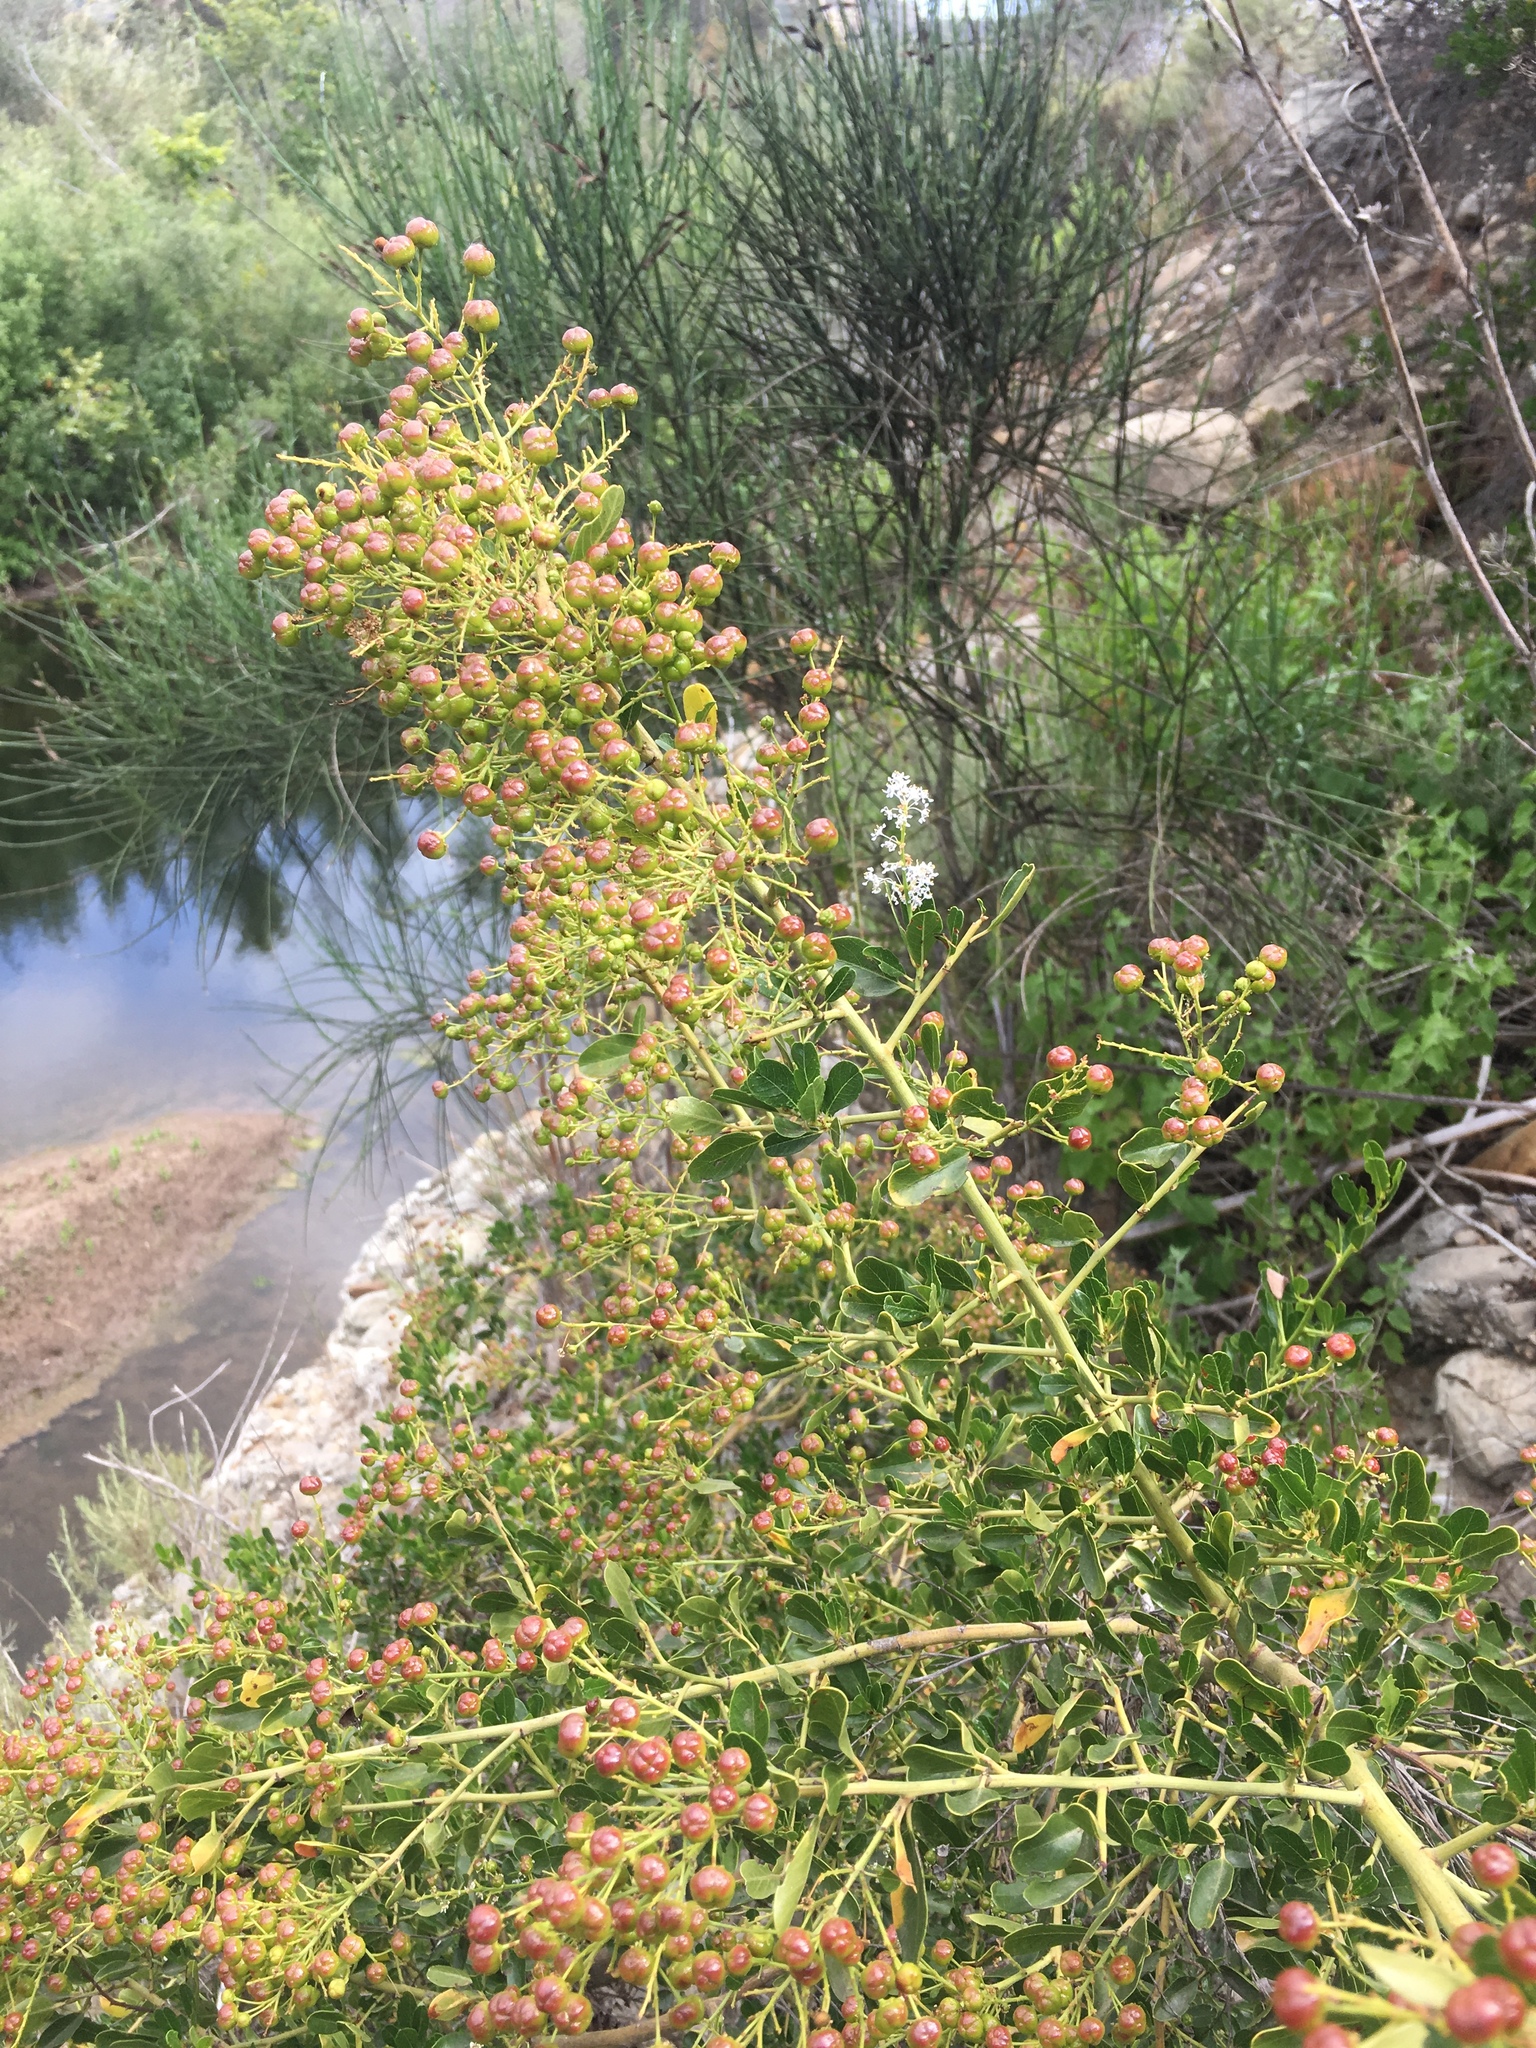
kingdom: Plantae
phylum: Tracheophyta
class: Magnoliopsida
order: Rosales
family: Rhamnaceae
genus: Ceanothus
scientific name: Ceanothus spinosus
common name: Greenbark whitethorn
